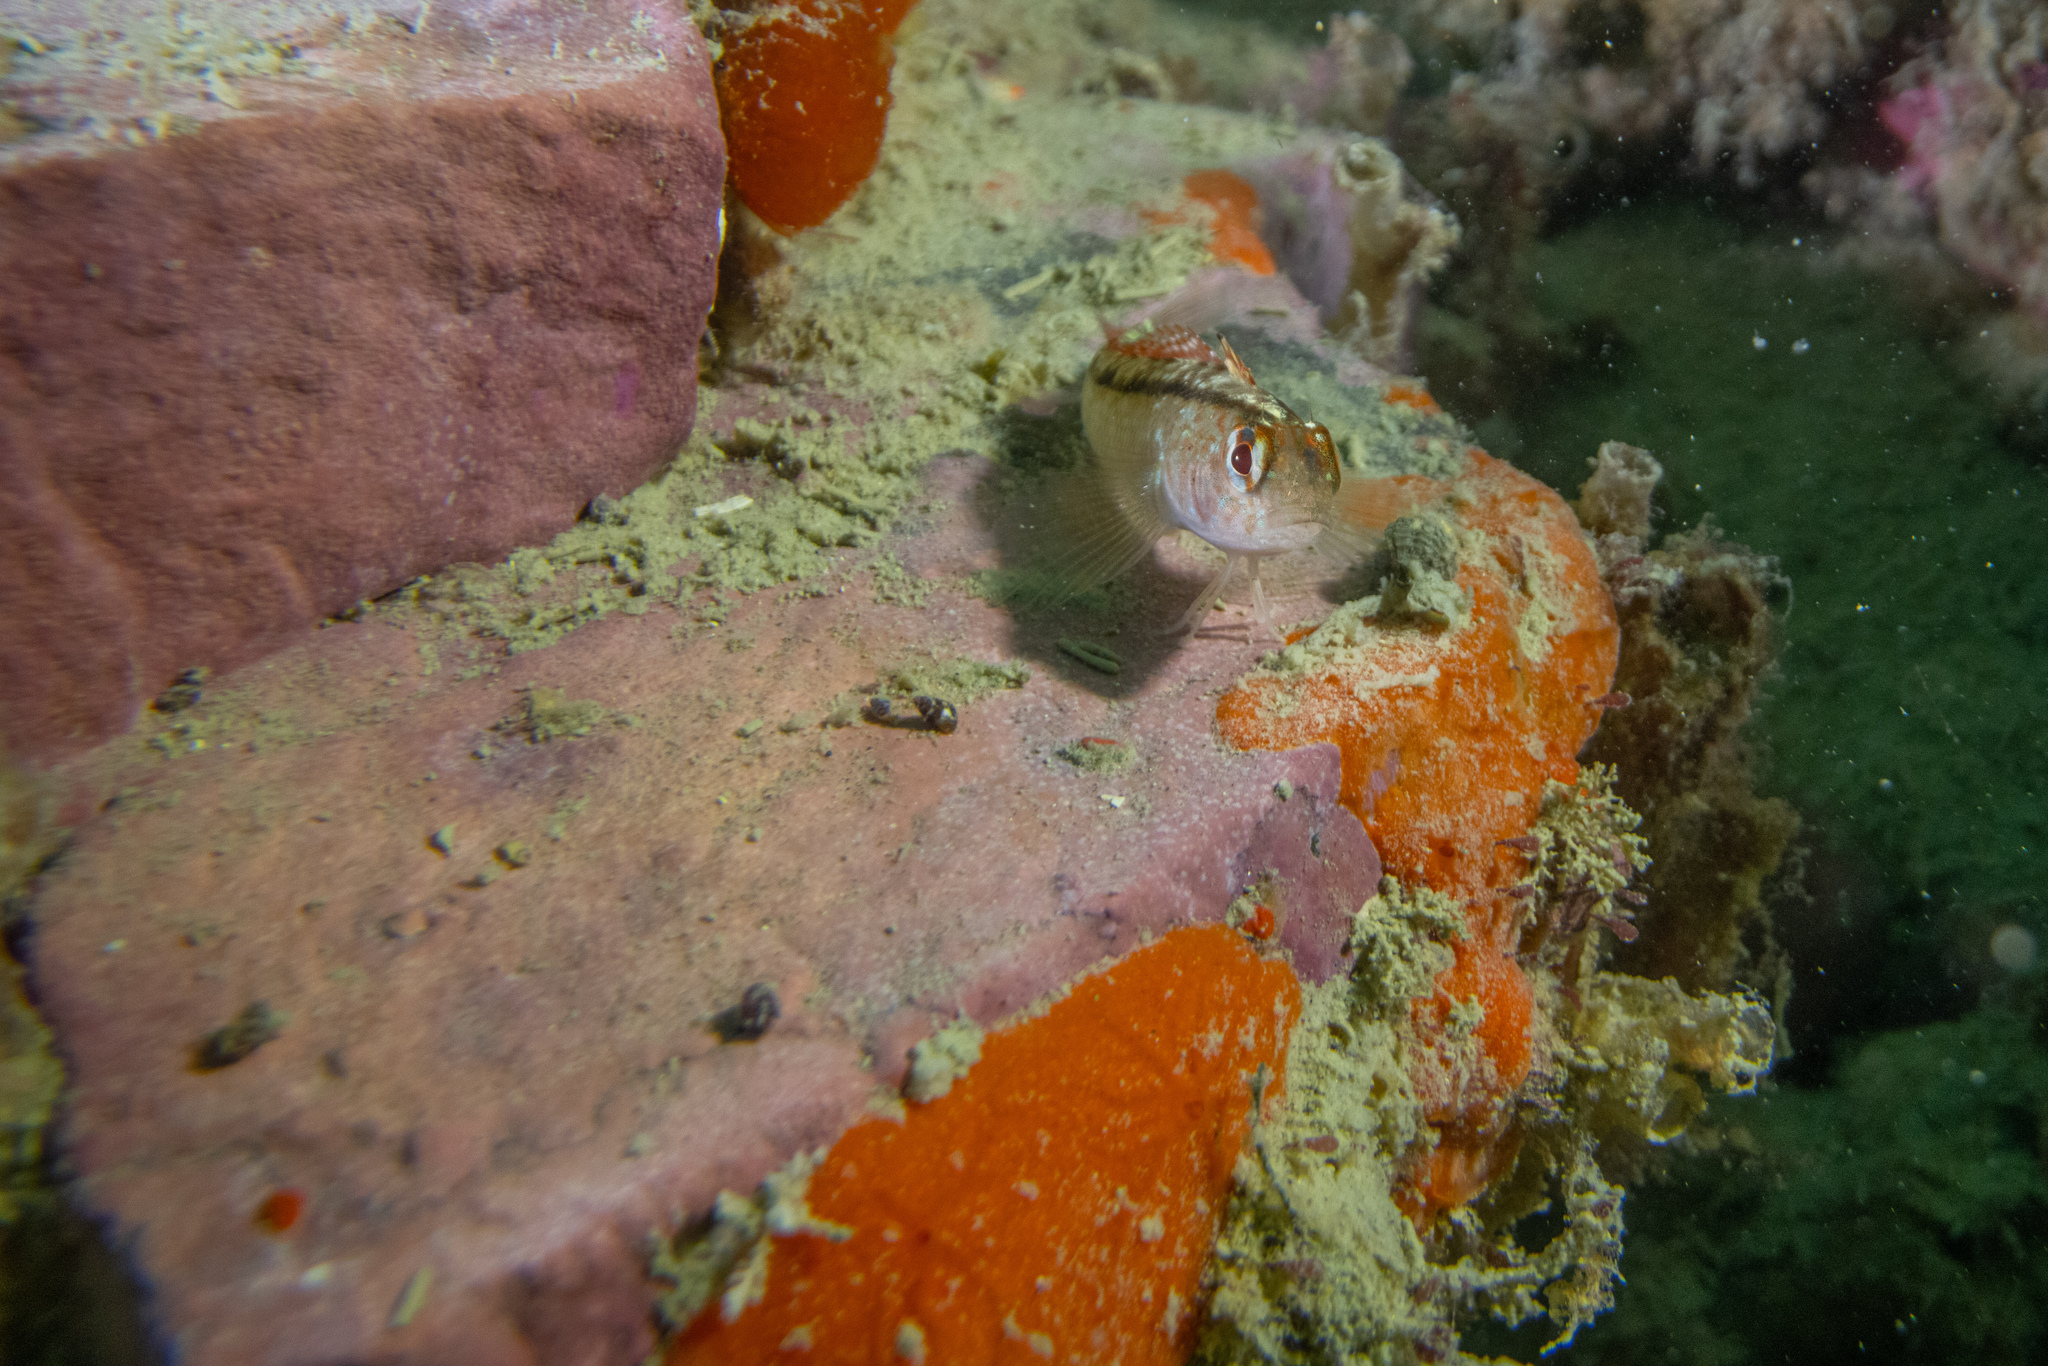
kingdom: Animalia
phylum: Chordata
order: Perciformes
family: Tripterygiidae
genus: Forsterygion
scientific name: Forsterygion lapillum
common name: Common triplefin
